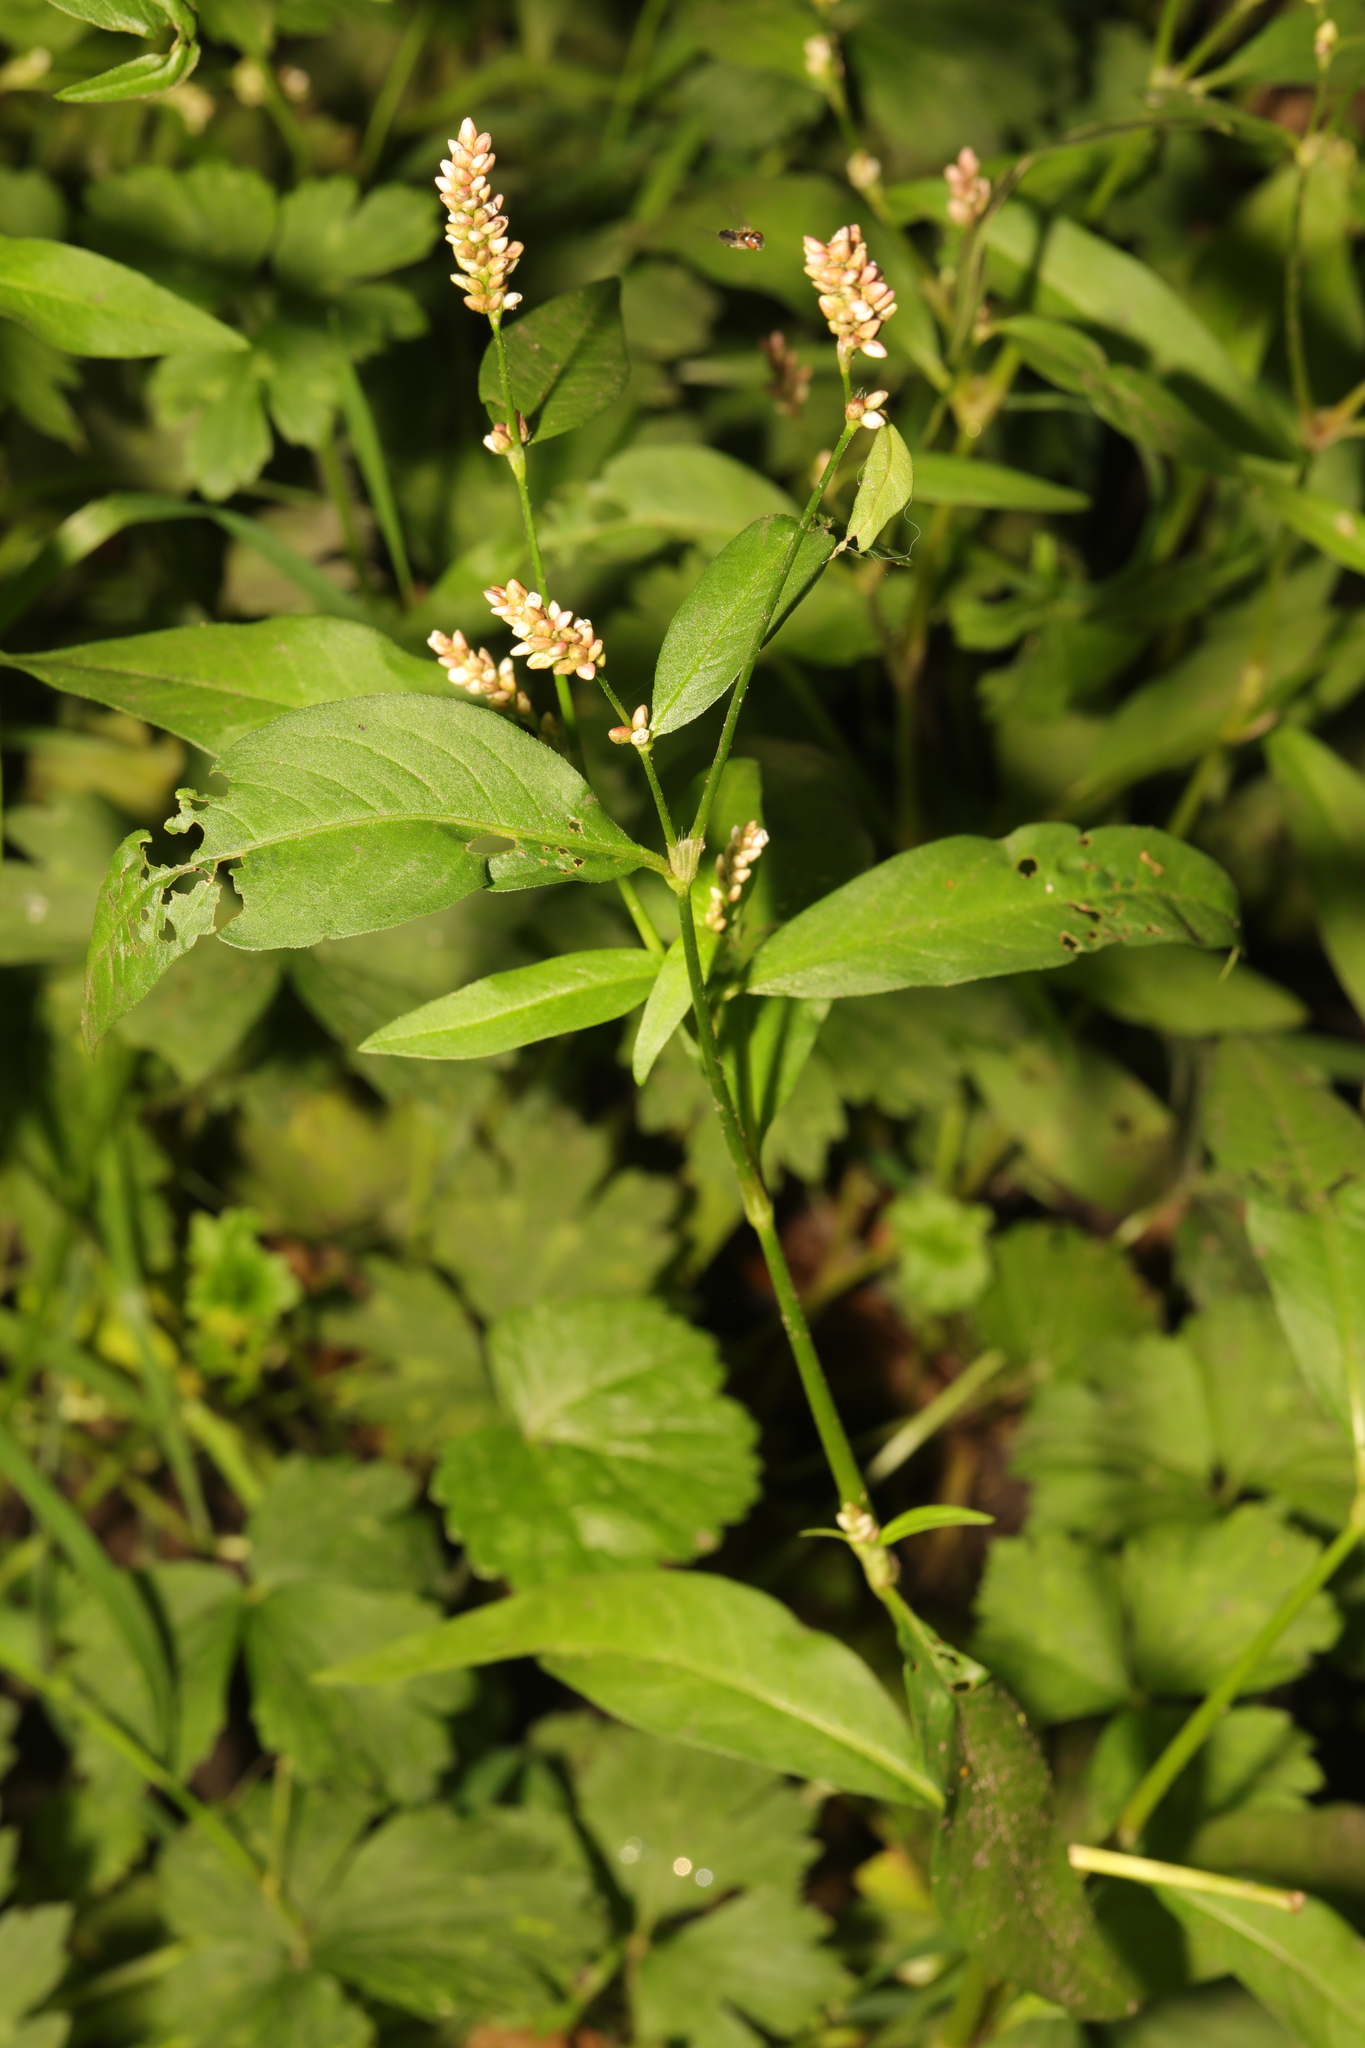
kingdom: Plantae
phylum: Tracheophyta
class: Magnoliopsida
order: Caryophyllales
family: Polygonaceae
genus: Persicaria
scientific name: Persicaria maculosa
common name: Redshank
